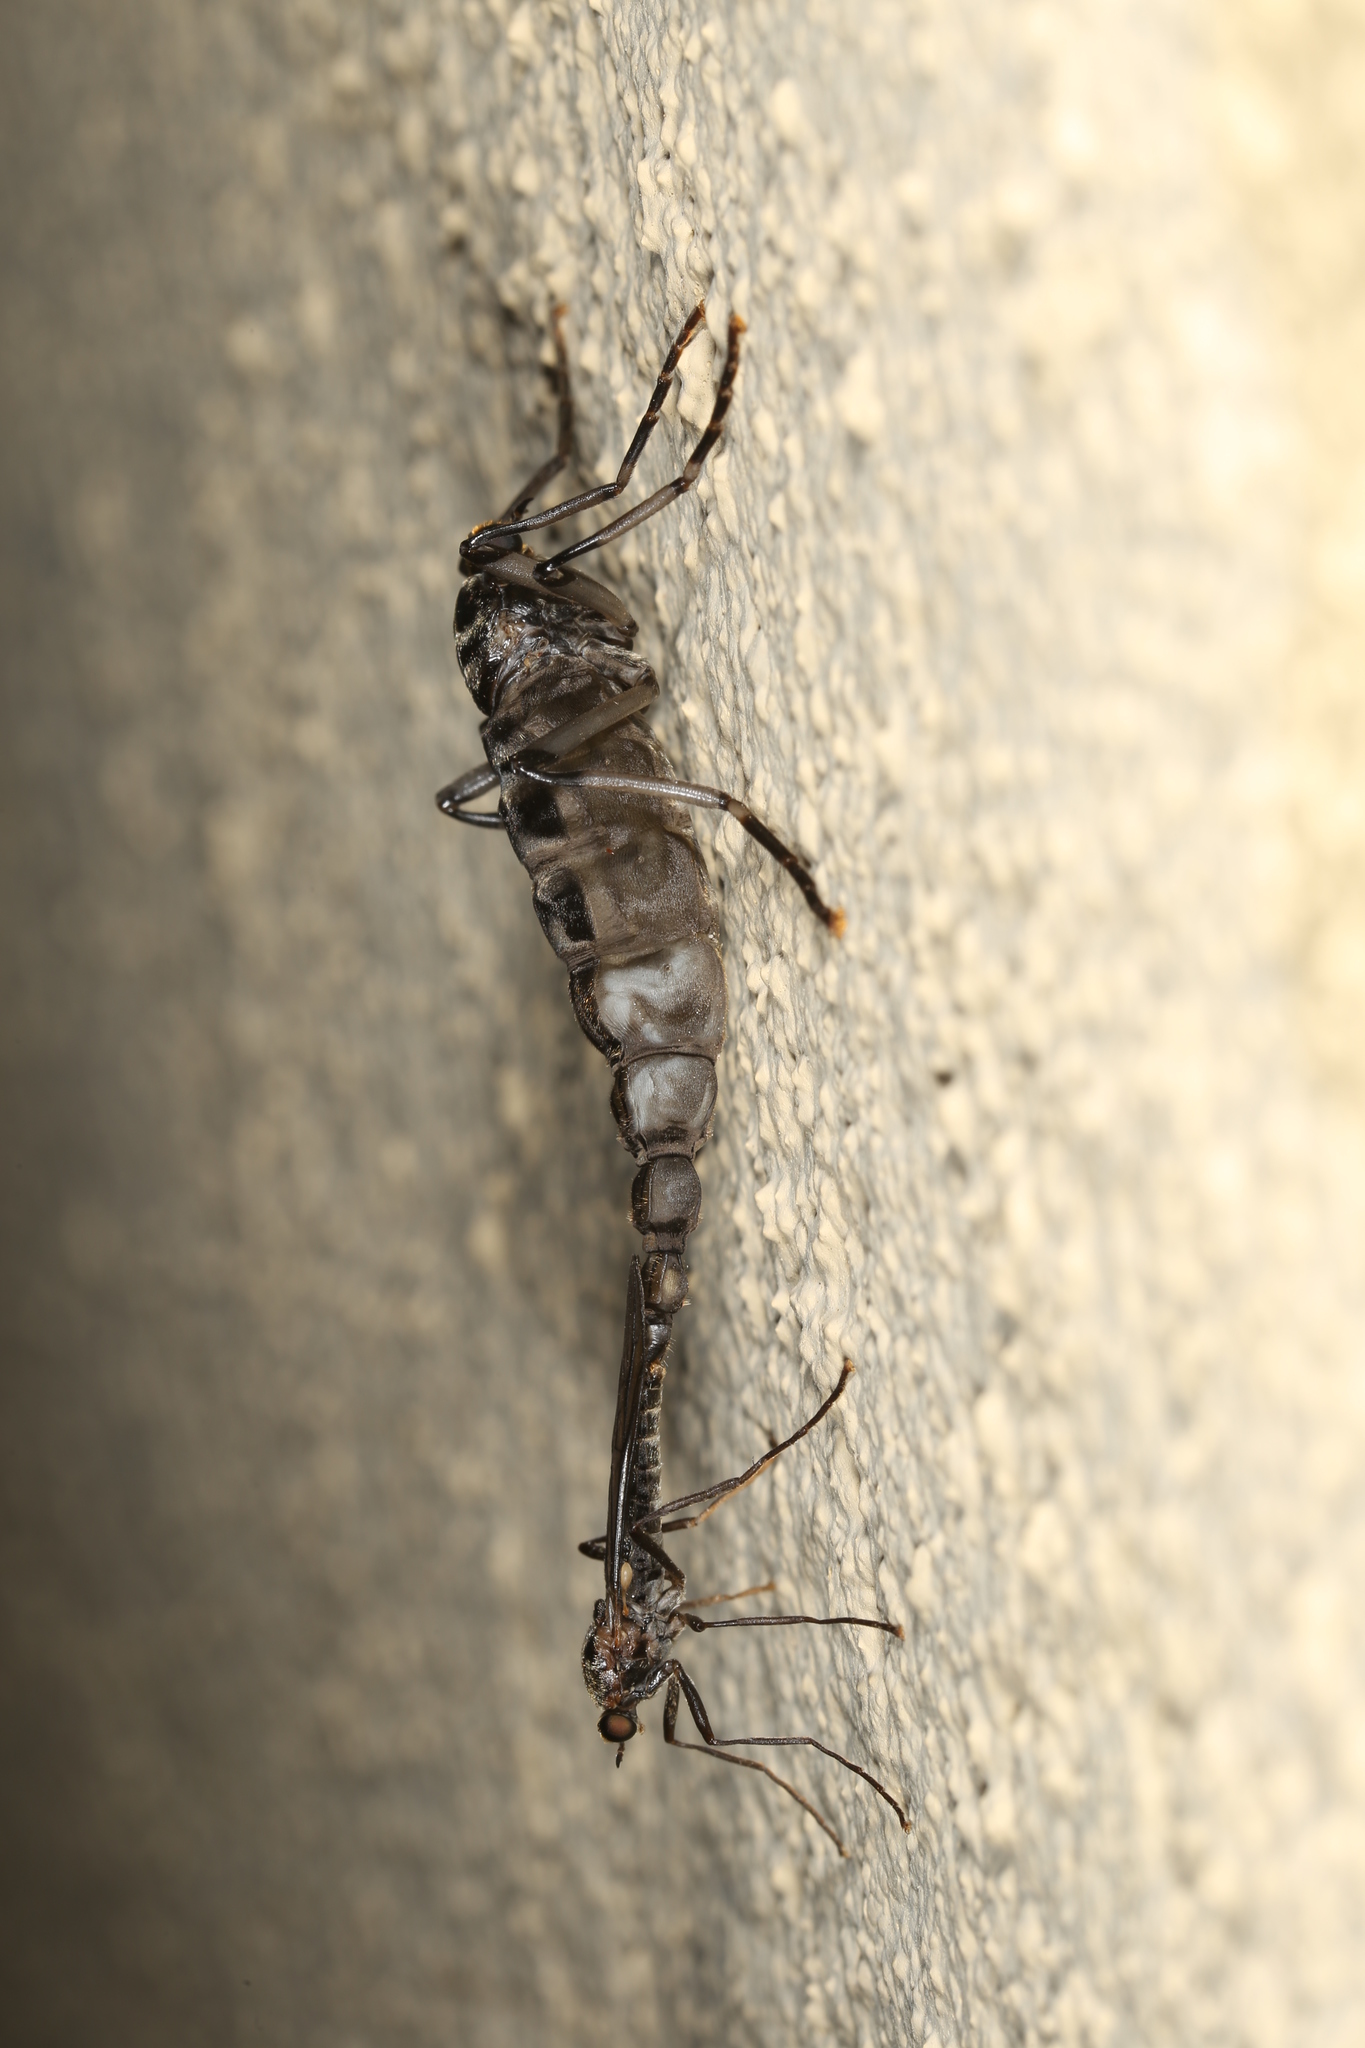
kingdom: Animalia
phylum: Arthropoda
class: Insecta
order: Diptera
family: Stratiomyidae
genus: Boreoides
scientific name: Boreoides subulatus
